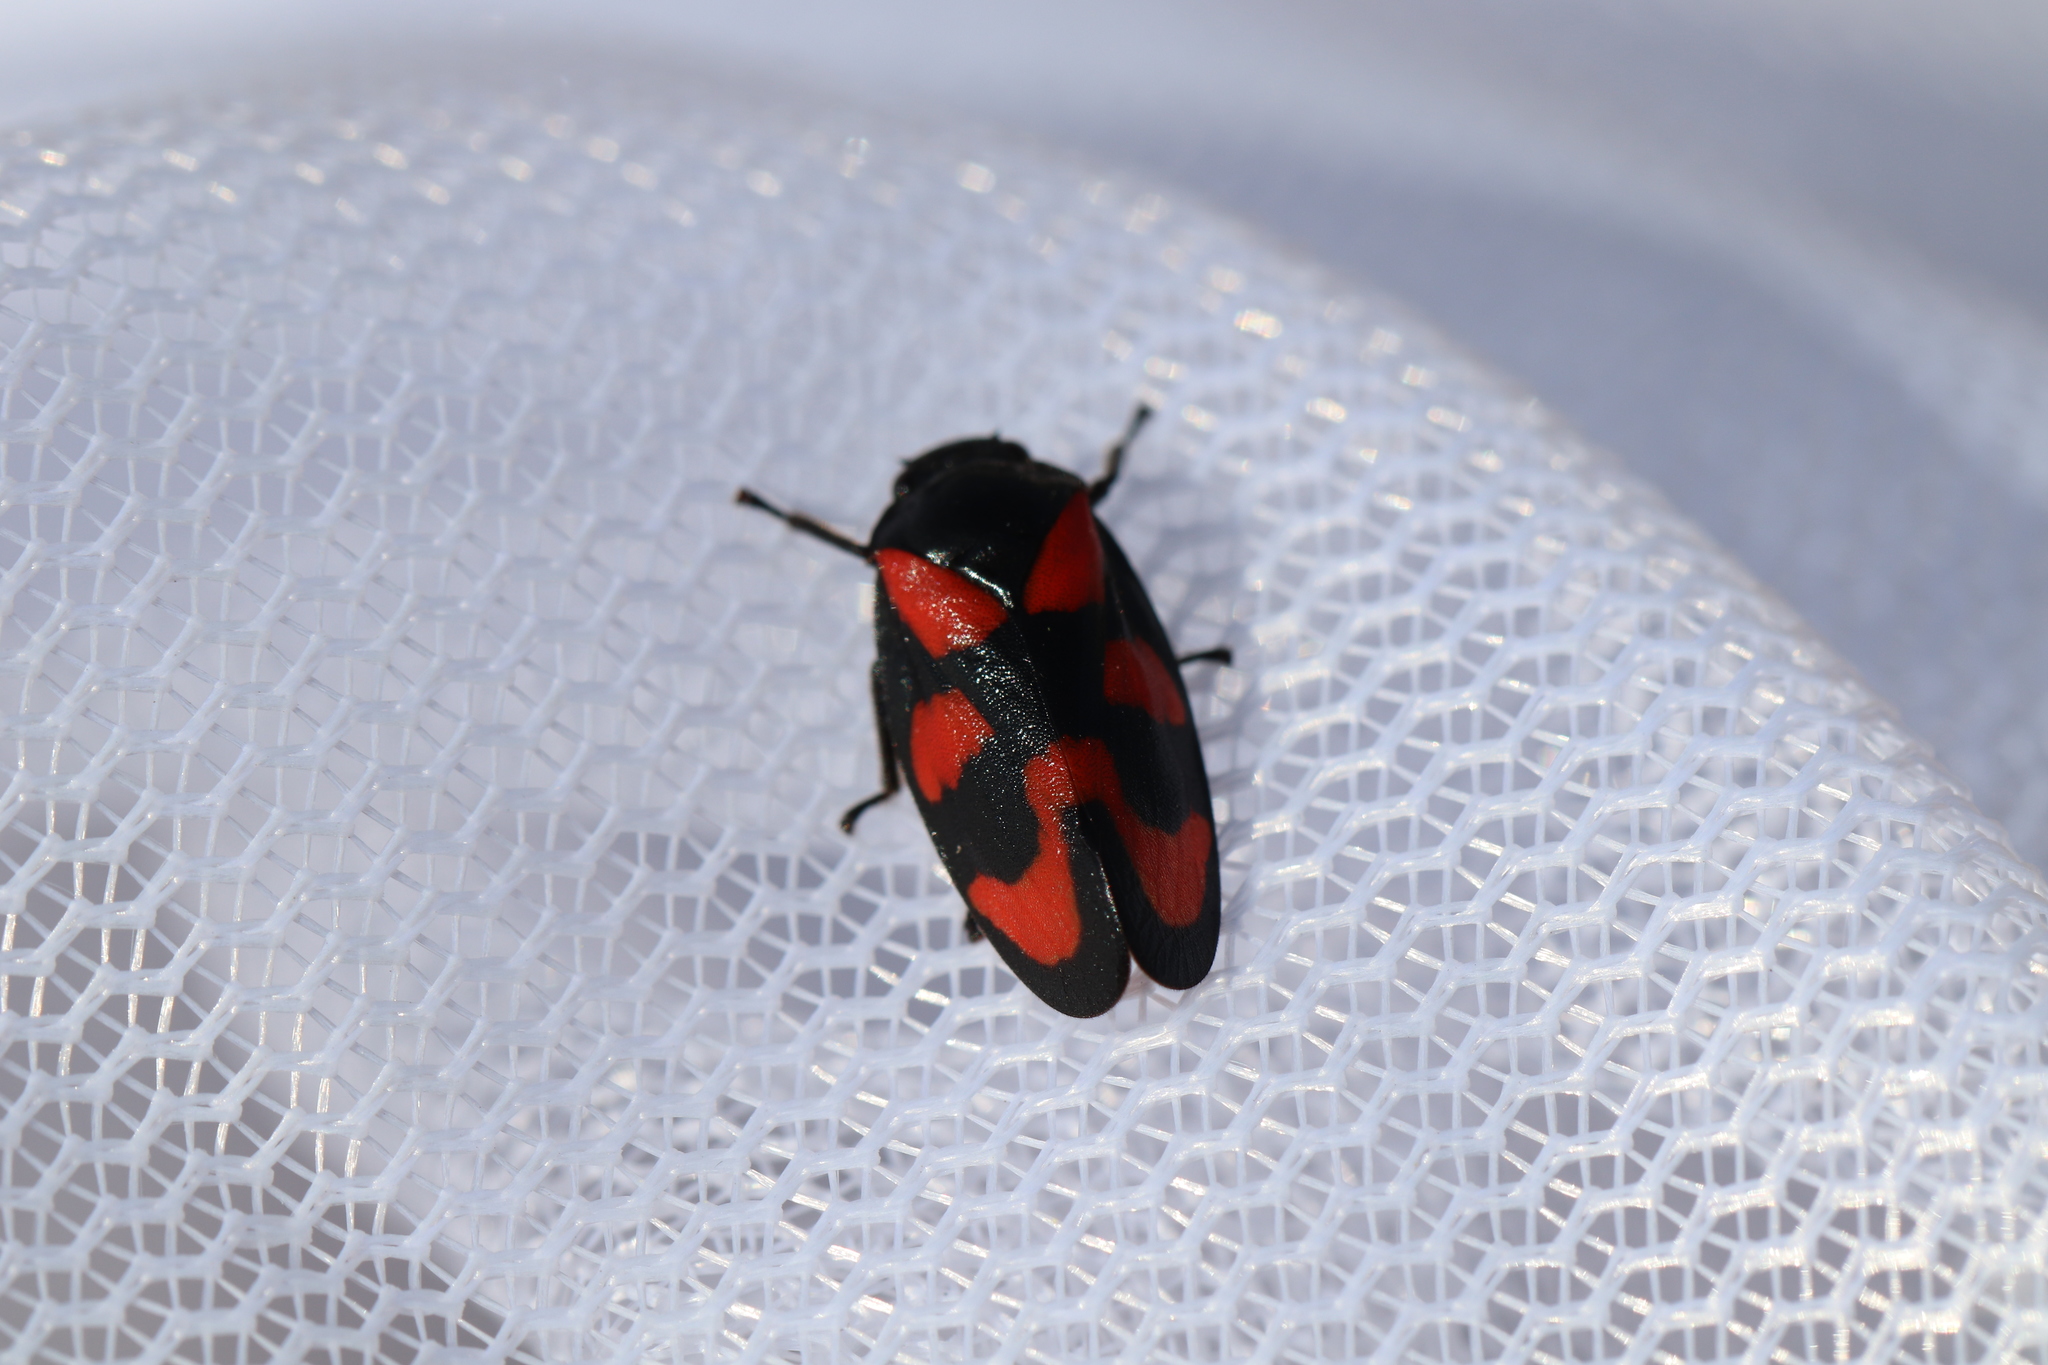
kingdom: Animalia
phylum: Arthropoda
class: Insecta
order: Hemiptera
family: Cercopidae
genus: Cercopis
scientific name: Cercopis vulnerata
